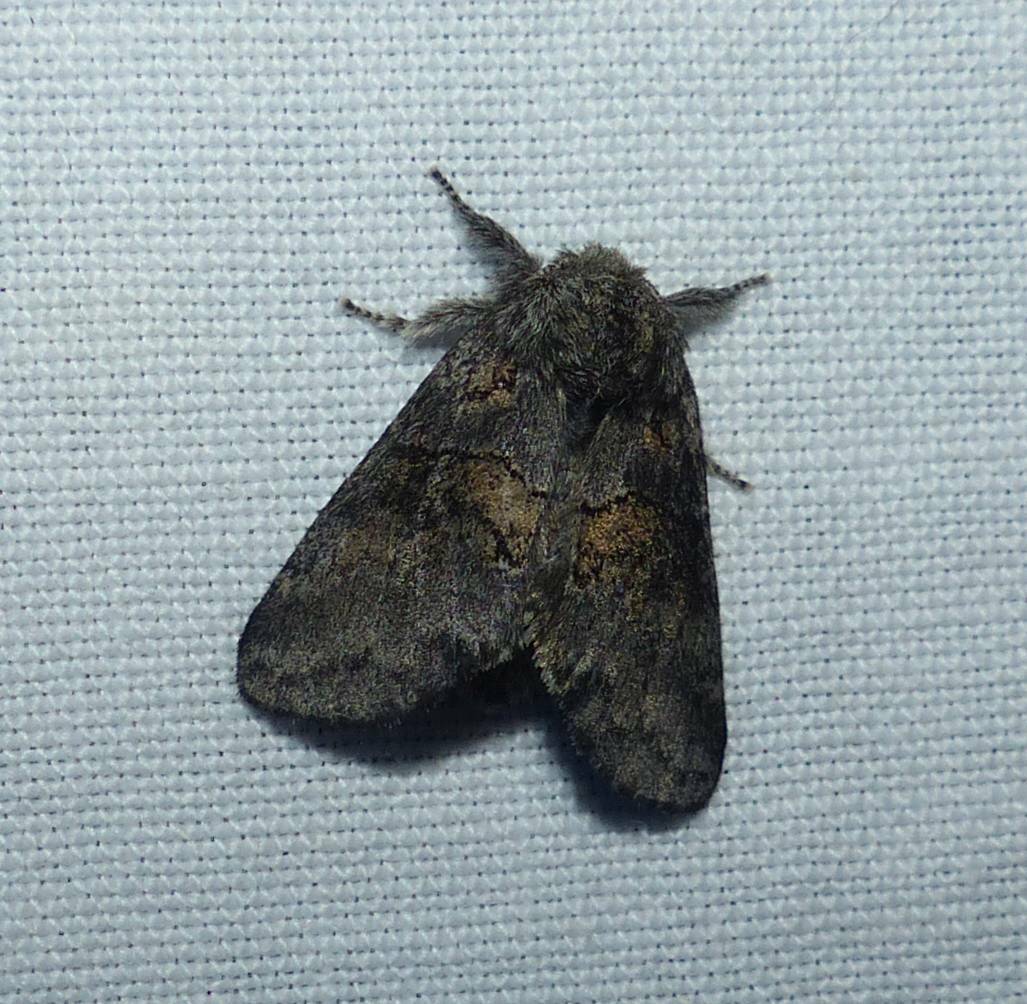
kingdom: Animalia
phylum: Arthropoda
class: Insecta
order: Lepidoptera
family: Notodontidae
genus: Gluphisia
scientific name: Gluphisia septentrionis
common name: Common gluphisia
